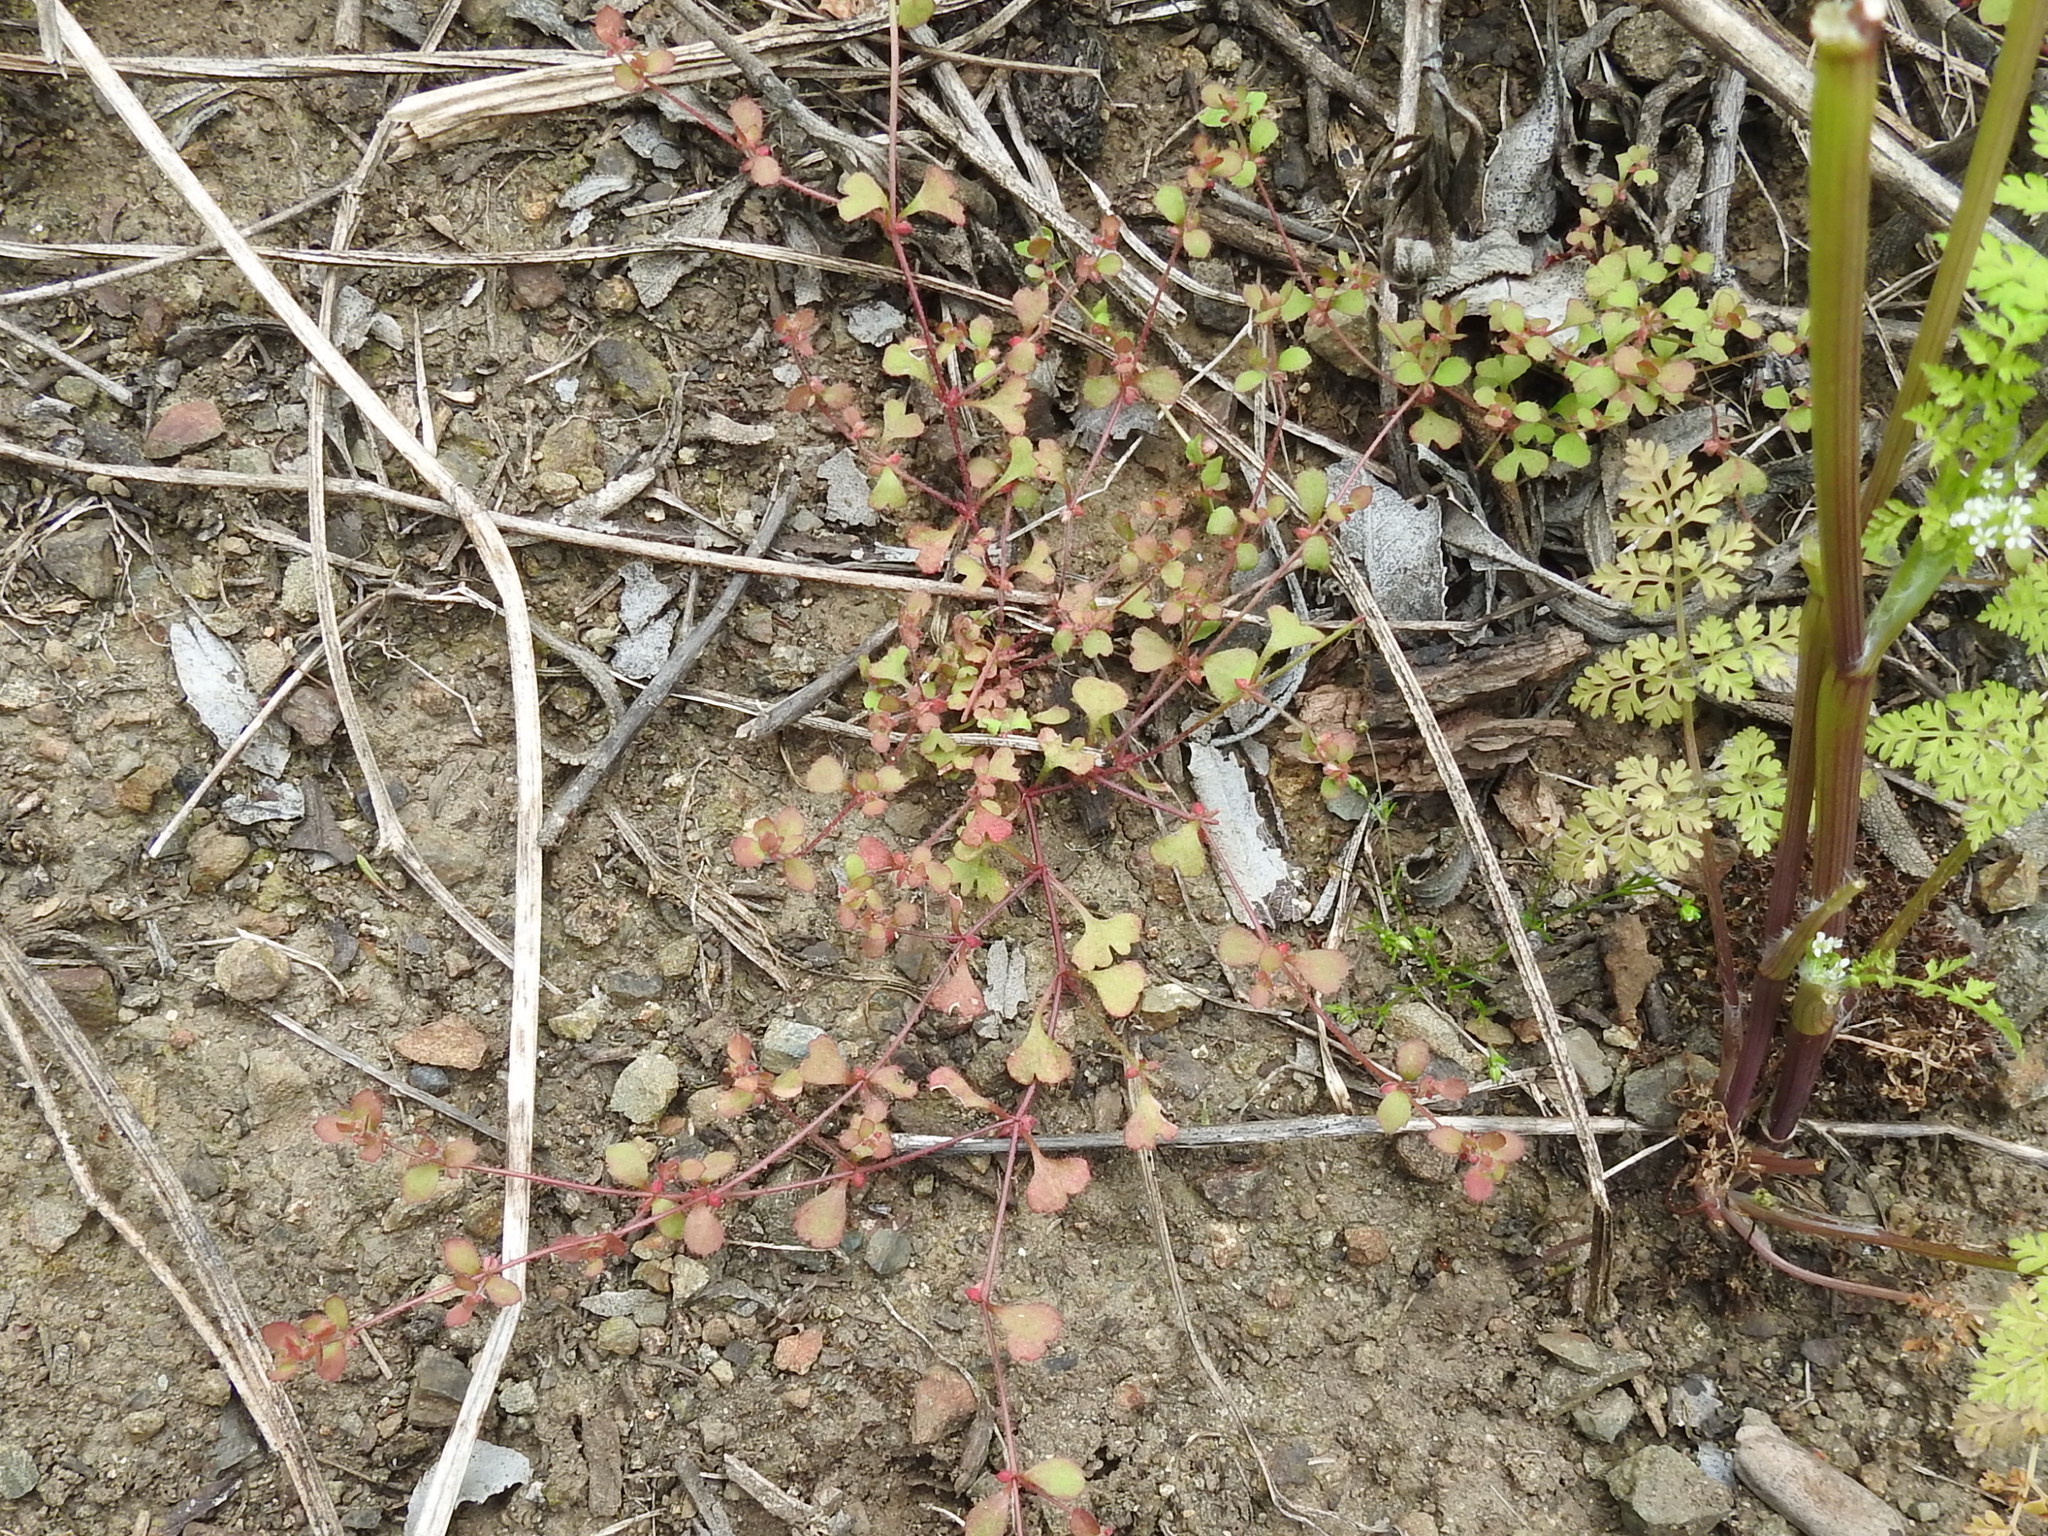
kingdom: Plantae
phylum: Tracheophyta
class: Magnoliopsida
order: Caryophyllales
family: Polygonaceae
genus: Pterostegia
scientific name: Pterostegia drymarioides
